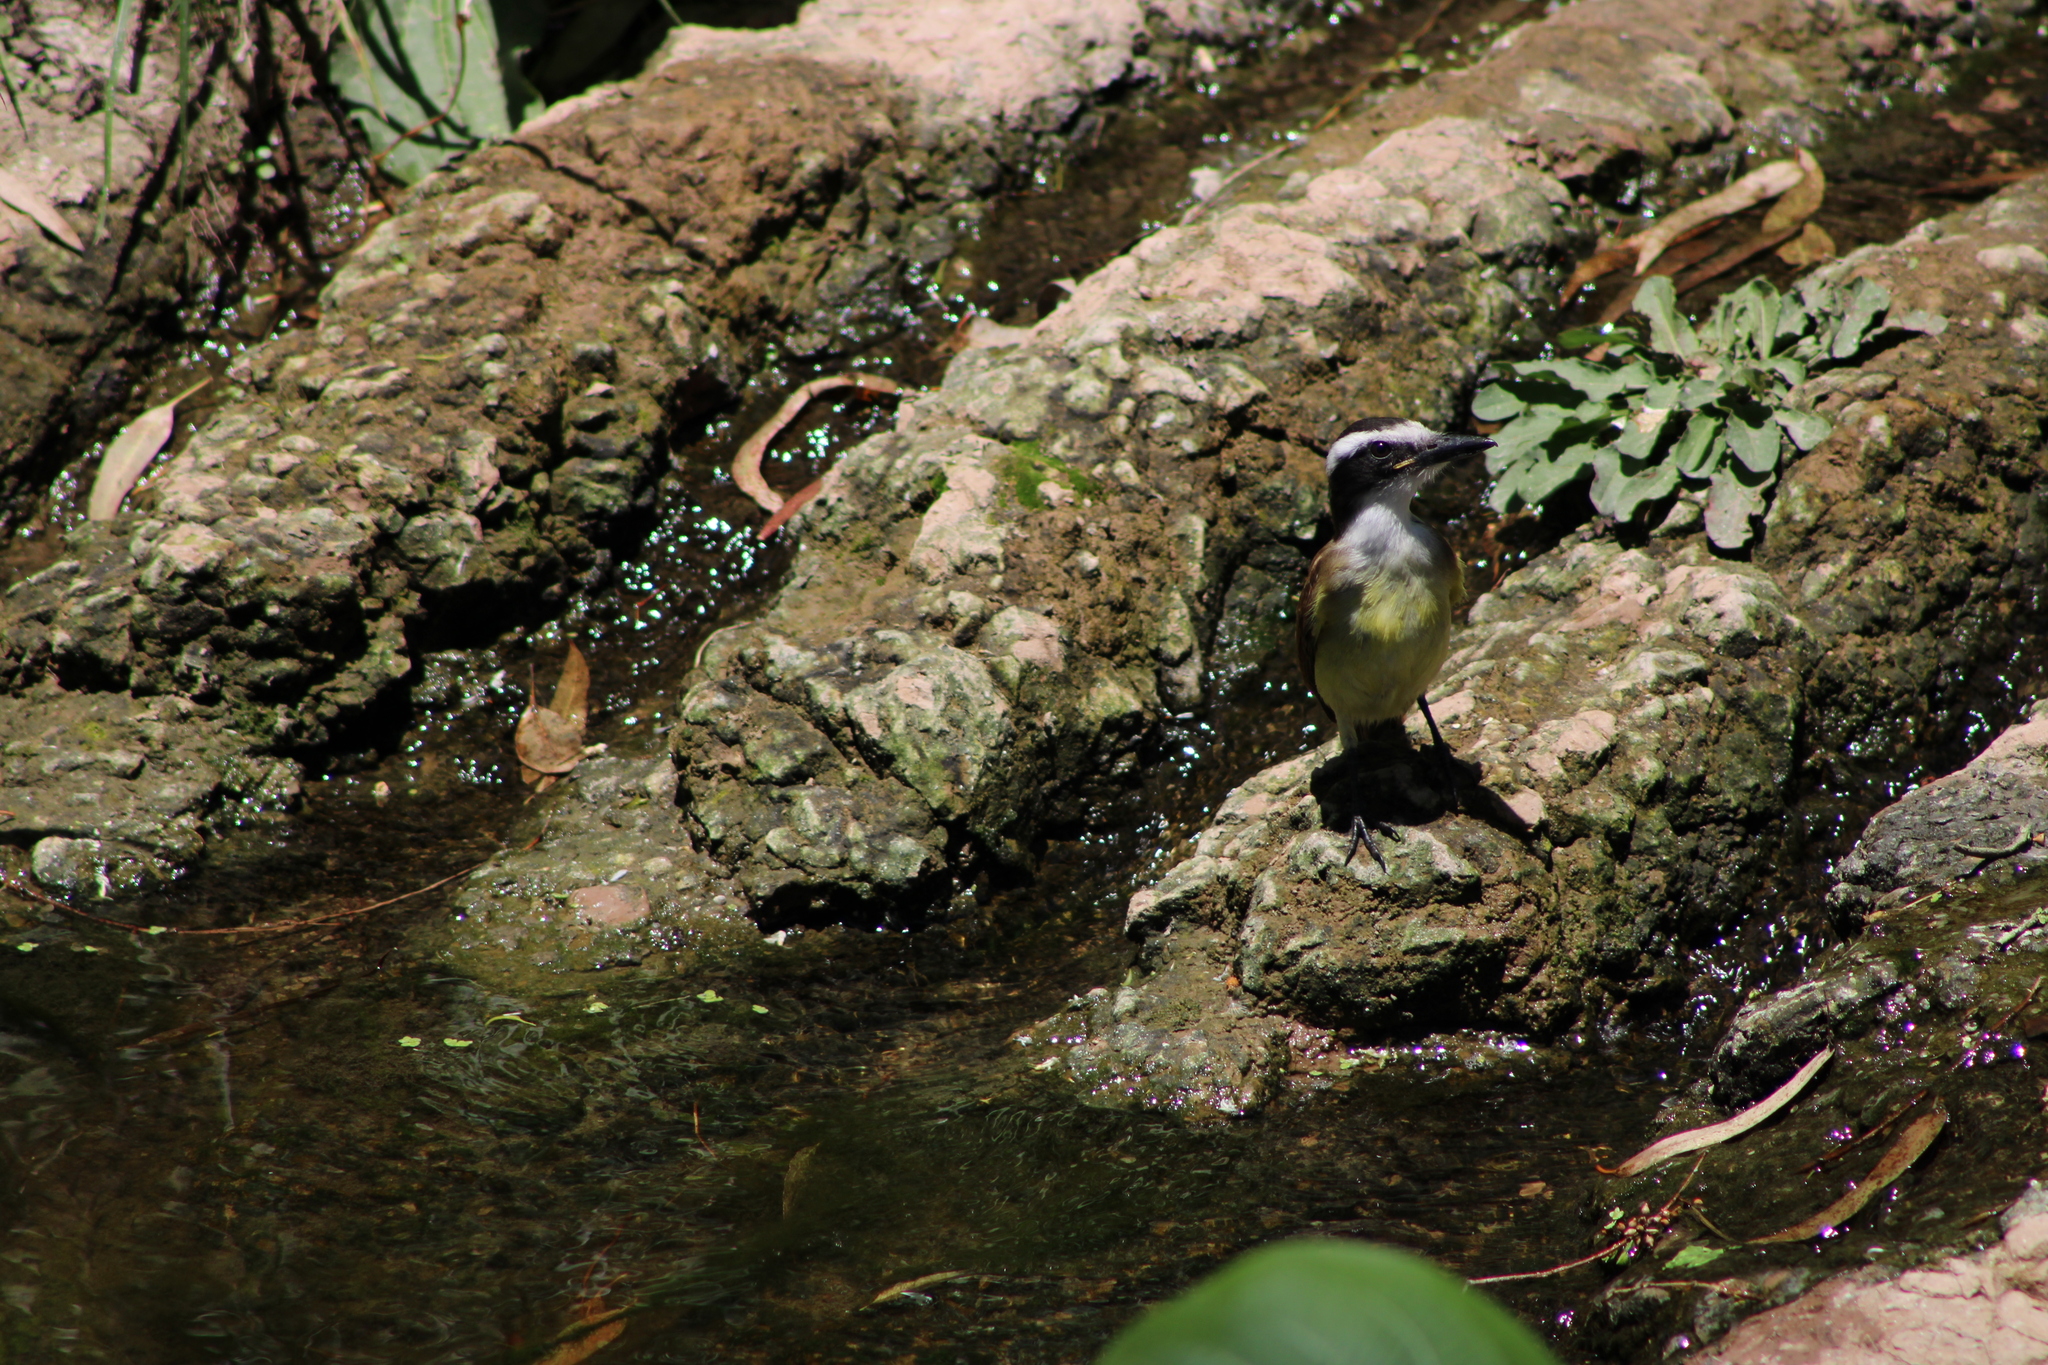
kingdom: Animalia
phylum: Chordata
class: Aves
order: Passeriformes
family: Tyrannidae
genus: Pitangus
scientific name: Pitangus sulphuratus
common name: Great kiskadee
